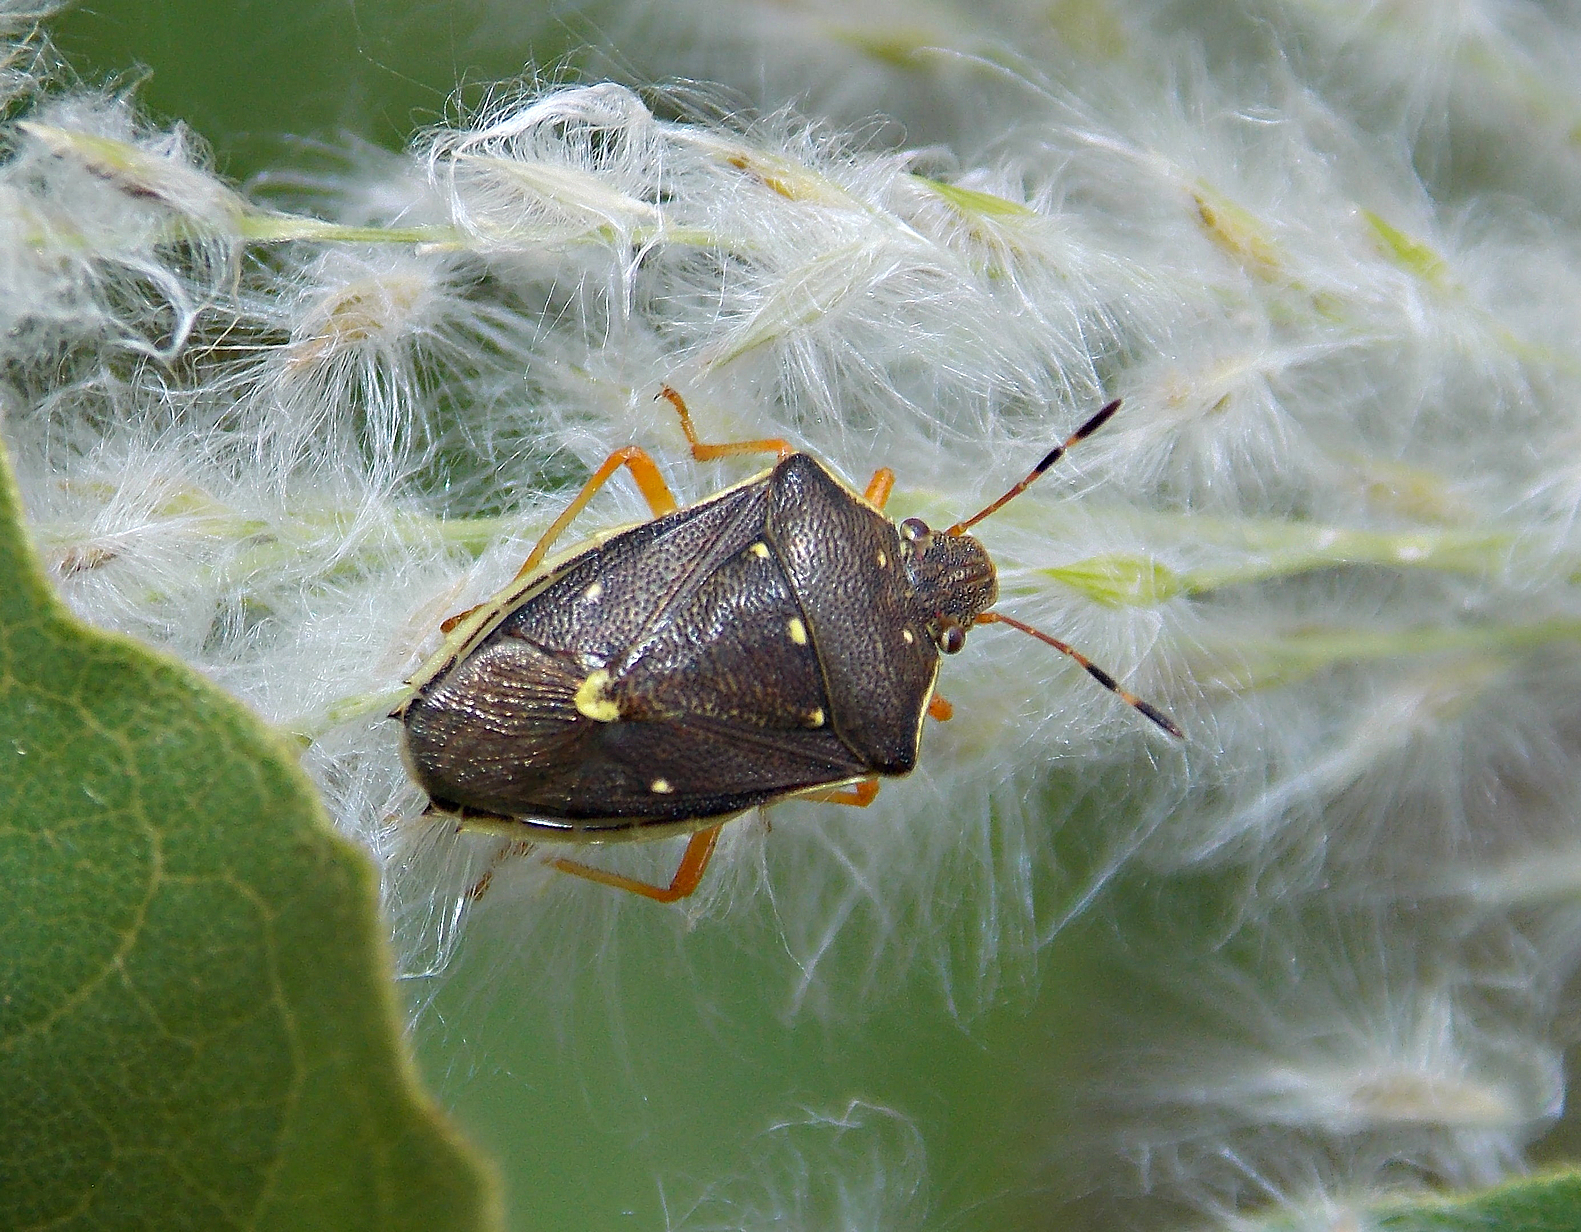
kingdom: Animalia
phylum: Arthropoda
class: Insecta
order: Hemiptera
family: Pentatomidae
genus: Mormidea
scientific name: Mormidea
